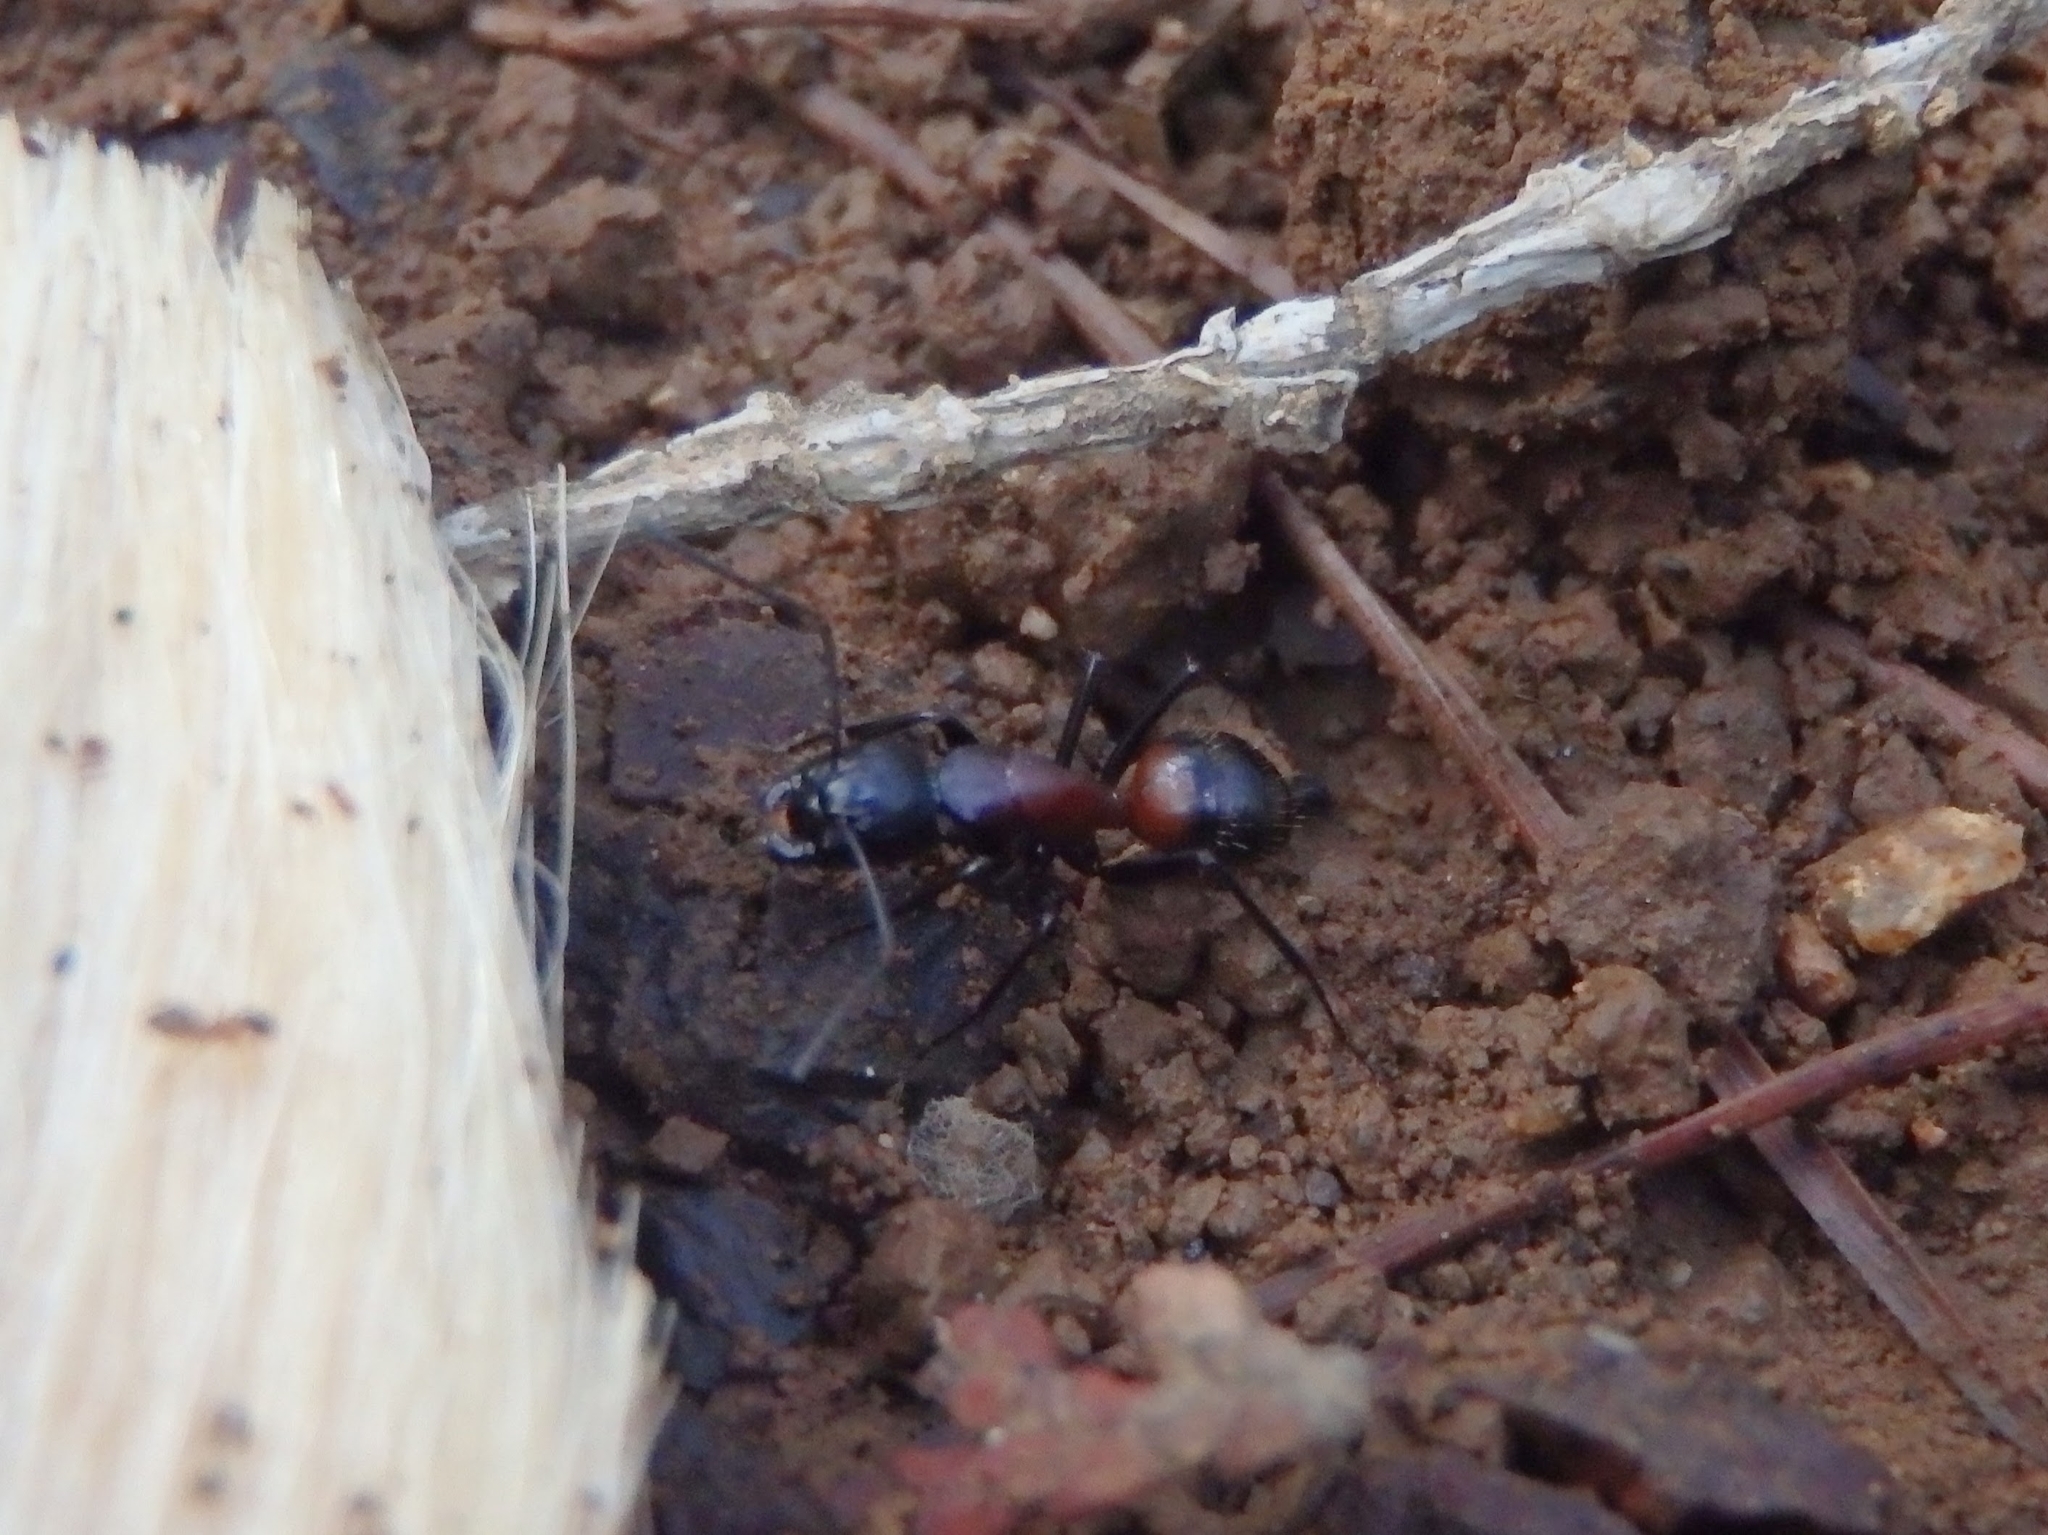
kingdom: Animalia
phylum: Arthropoda
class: Insecta
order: Hymenoptera
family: Formicidae
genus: Camponotus
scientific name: Camponotus obscuripes
